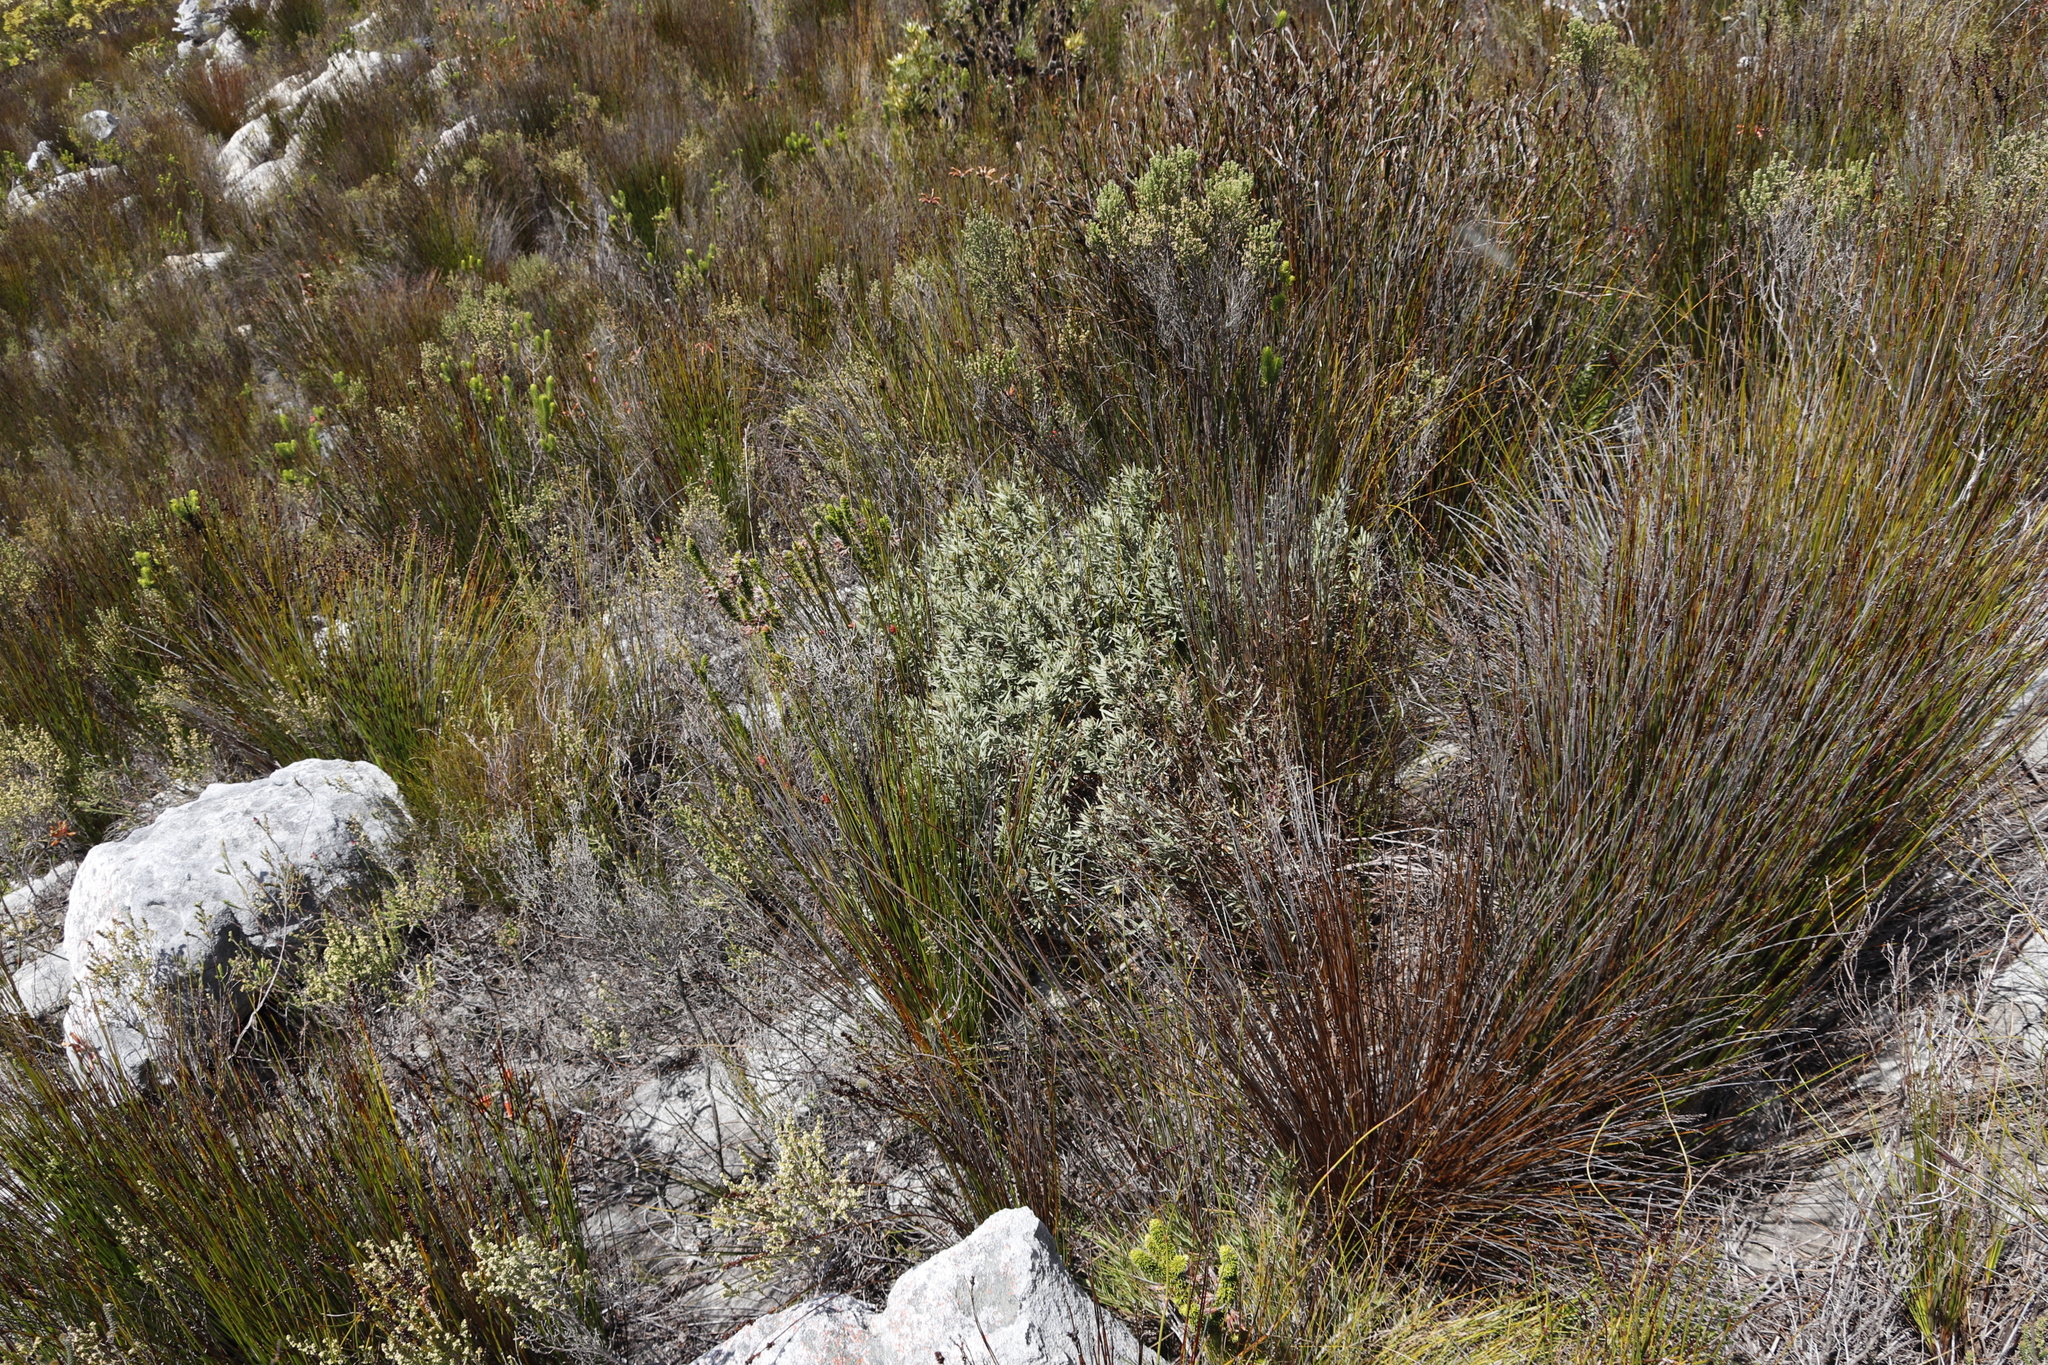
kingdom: Plantae
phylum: Tracheophyta
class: Magnoliopsida
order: Cornales
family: Grubbiaceae
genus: Grubbia
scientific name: Grubbia tomentosa
